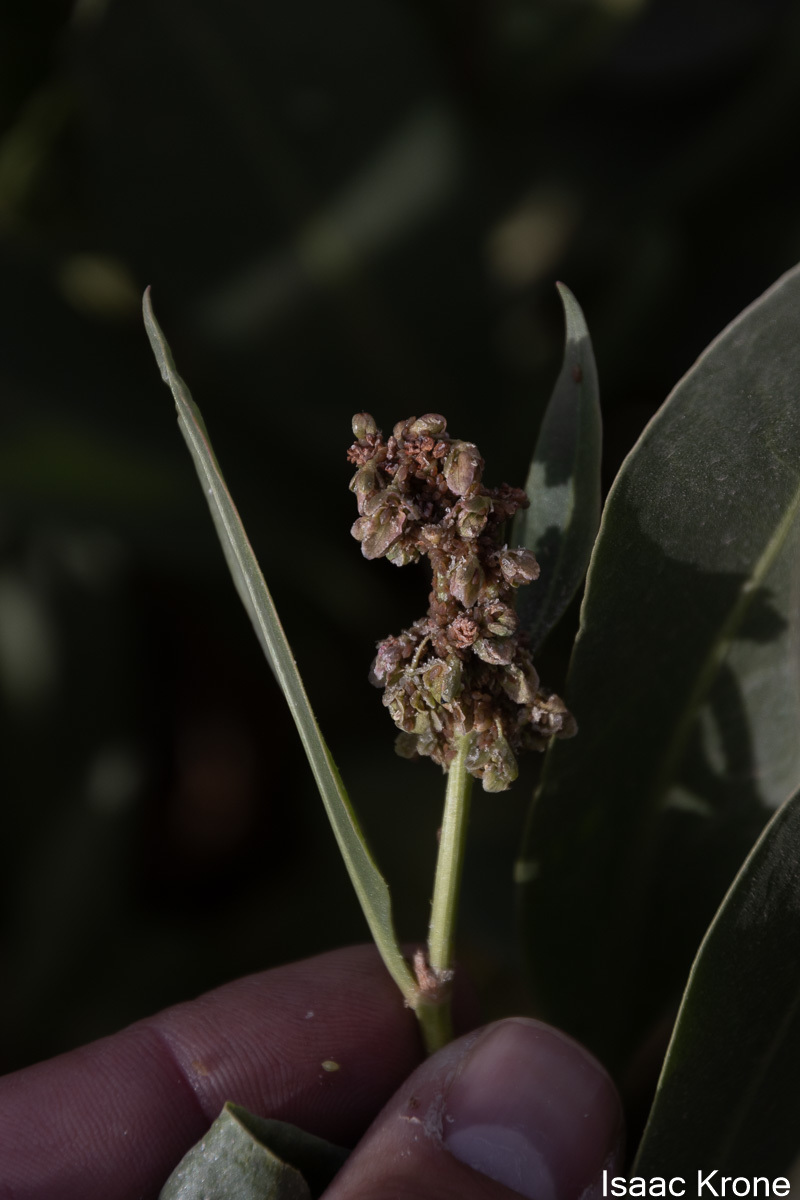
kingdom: Plantae
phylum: Tracheophyta
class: Magnoliopsida
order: Caryophyllales
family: Polygonaceae
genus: Rumex
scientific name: Rumex hymenosepalus
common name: Ganagra
